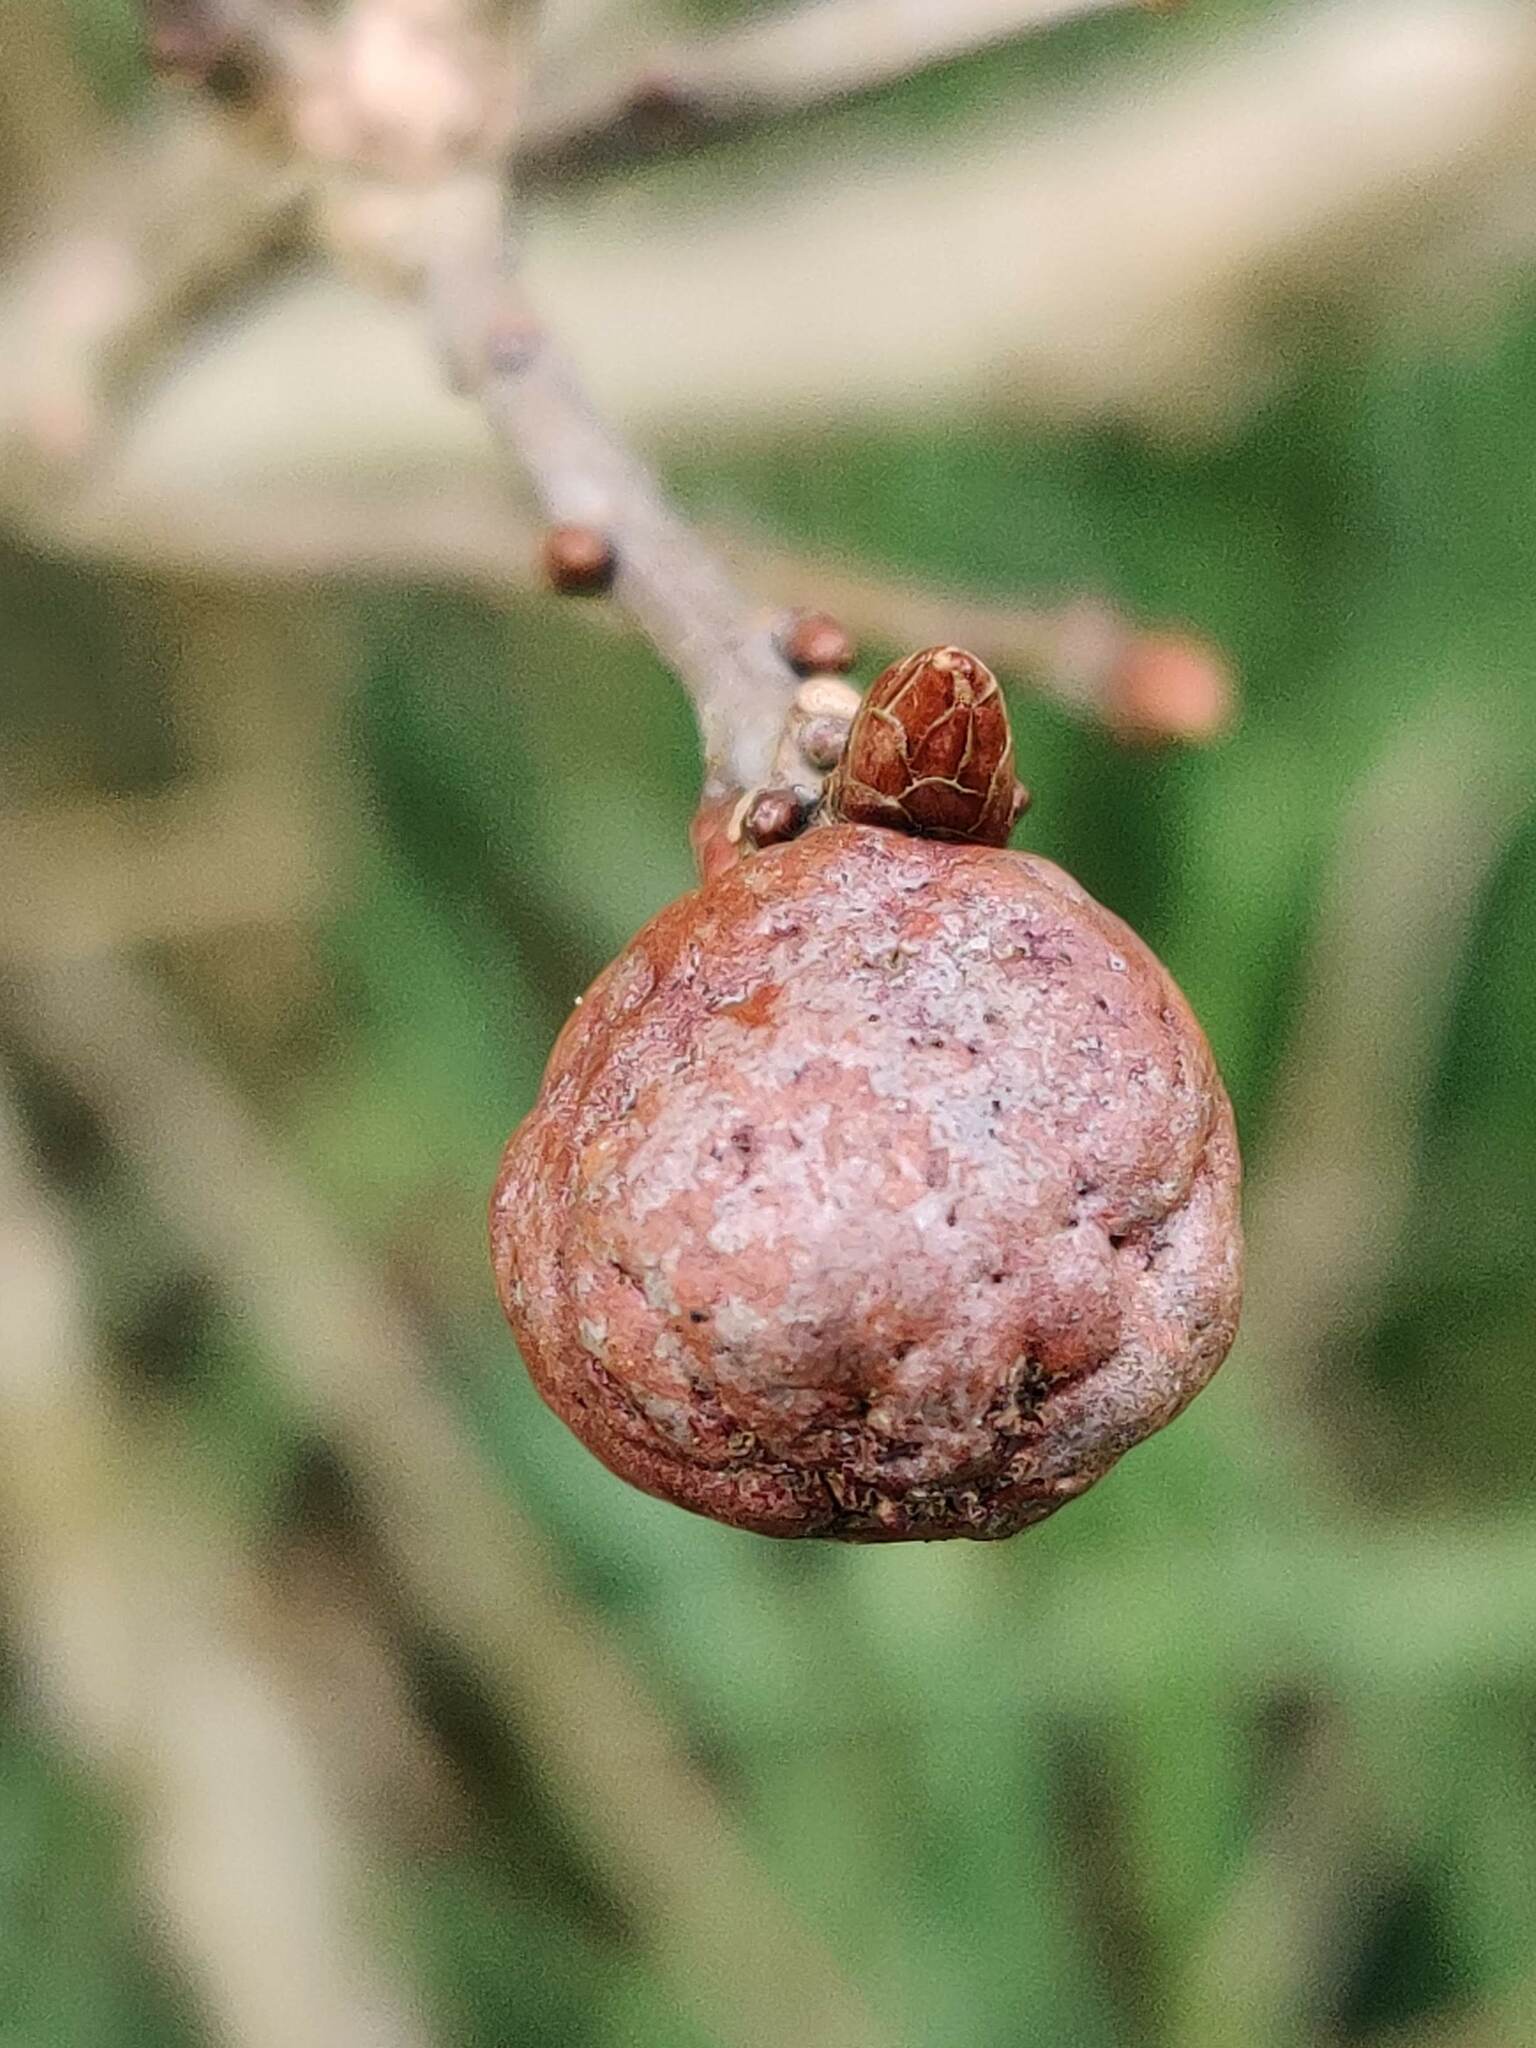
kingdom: Animalia
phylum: Arthropoda
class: Insecta
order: Hymenoptera
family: Cynipidae
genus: Biorhiza
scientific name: Biorhiza pallida
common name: Oak apple
